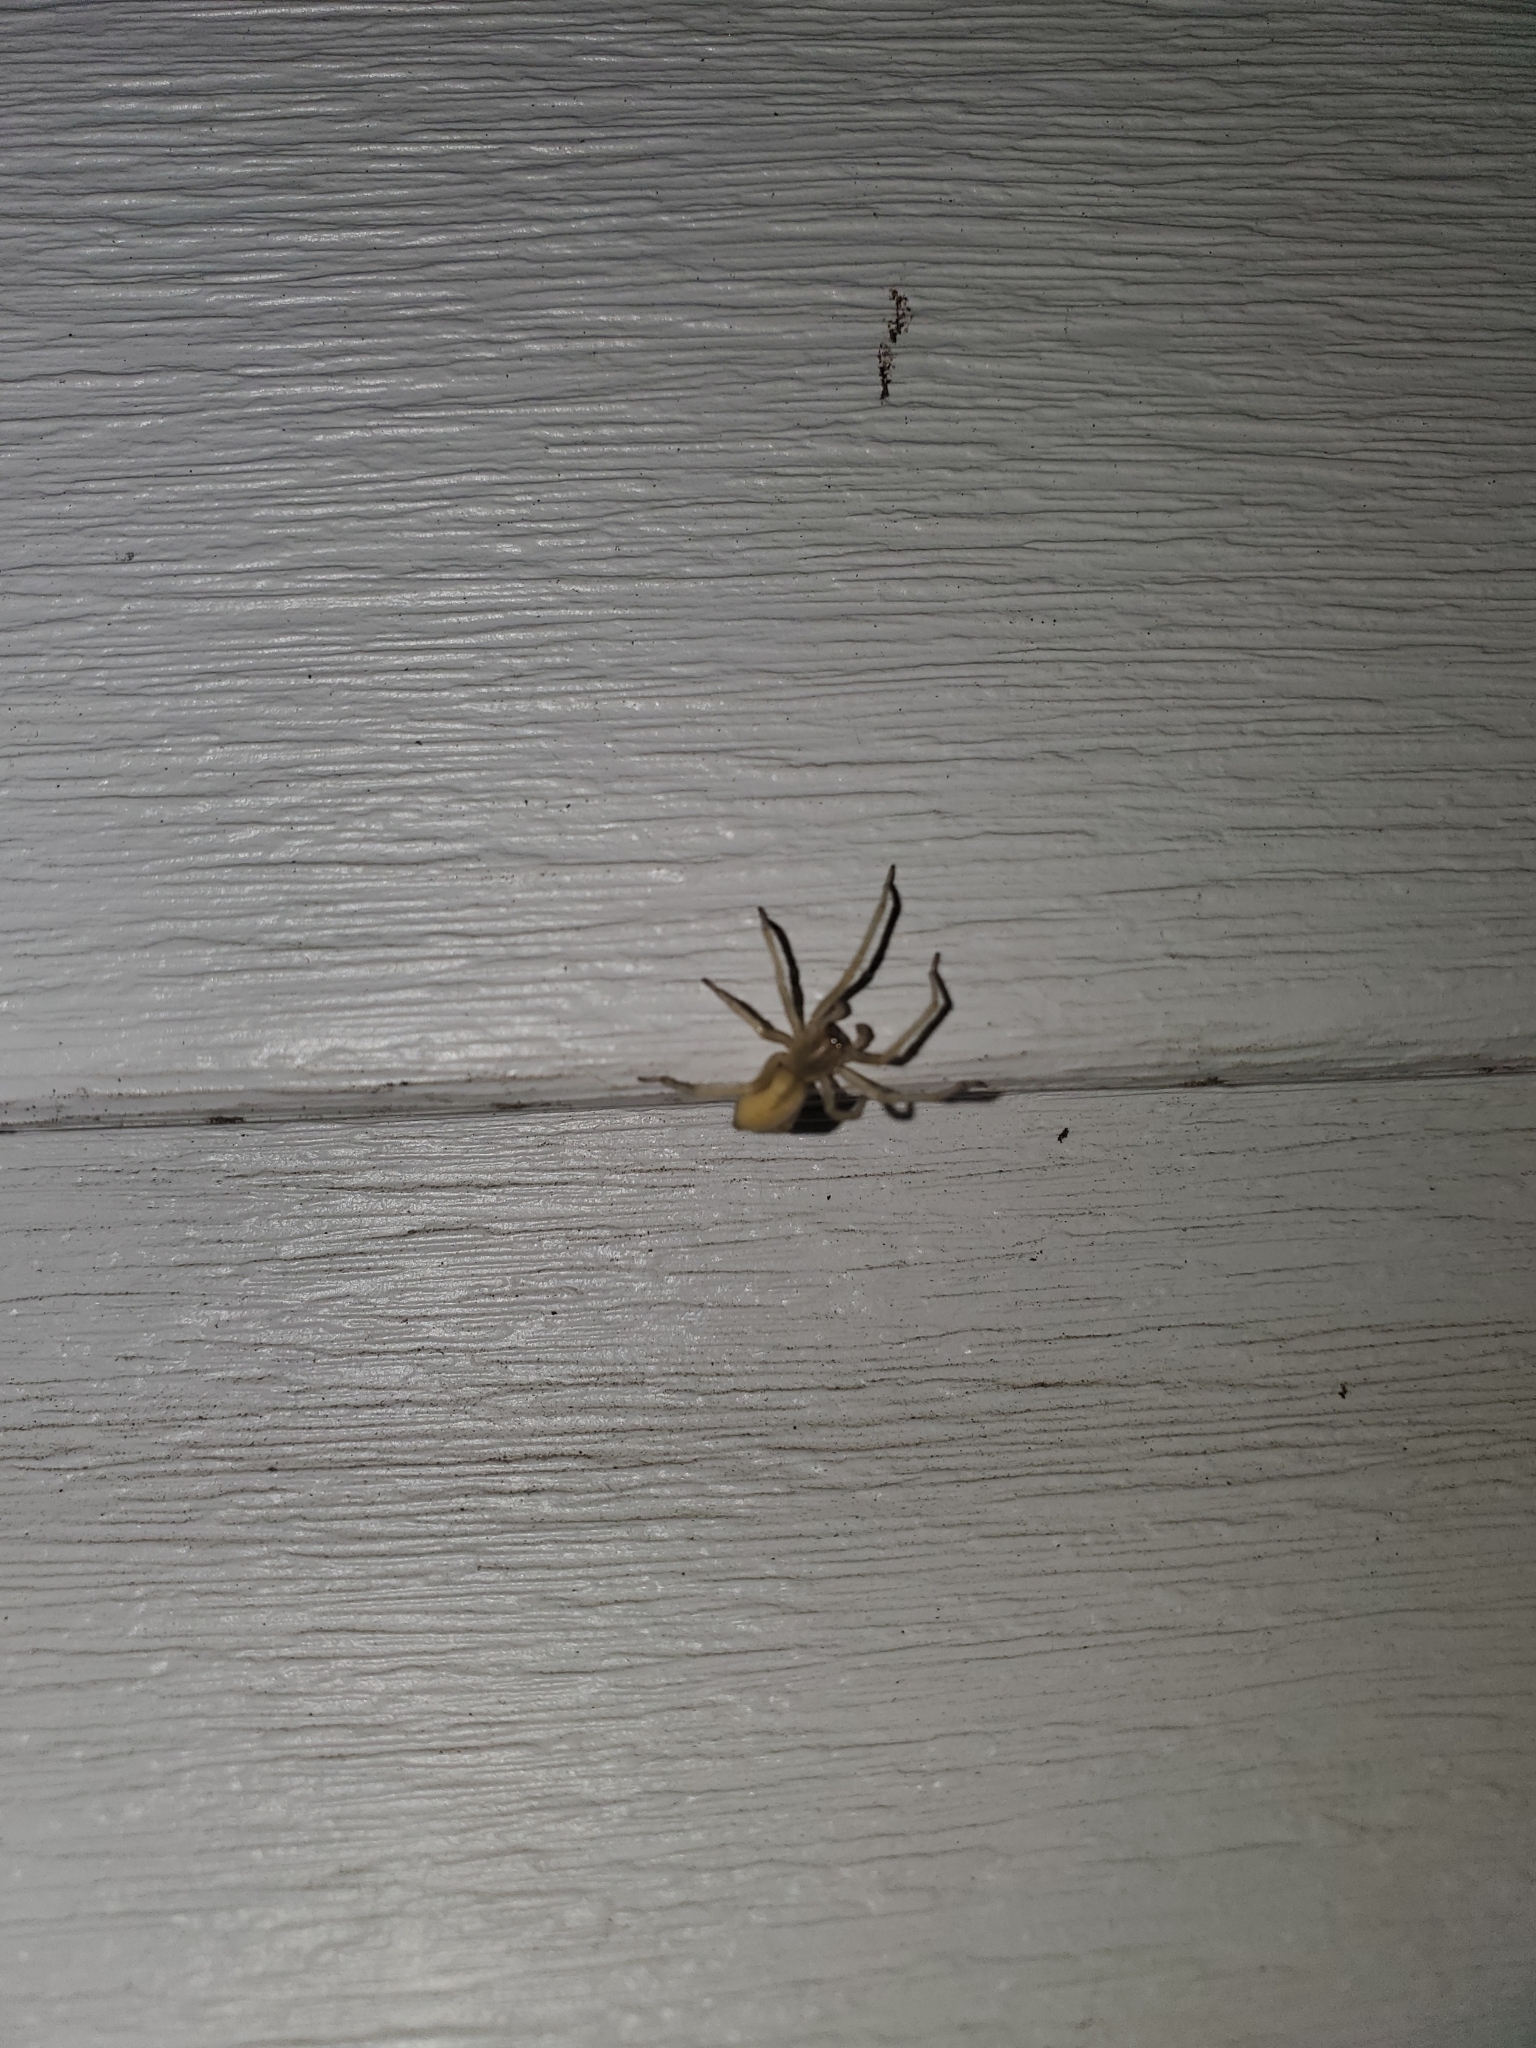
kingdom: Animalia
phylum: Arthropoda
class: Arachnida
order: Araneae
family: Cheiracanthiidae
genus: Cheiracanthium
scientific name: Cheiracanthium mildei
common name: Northern yellow sac spider
